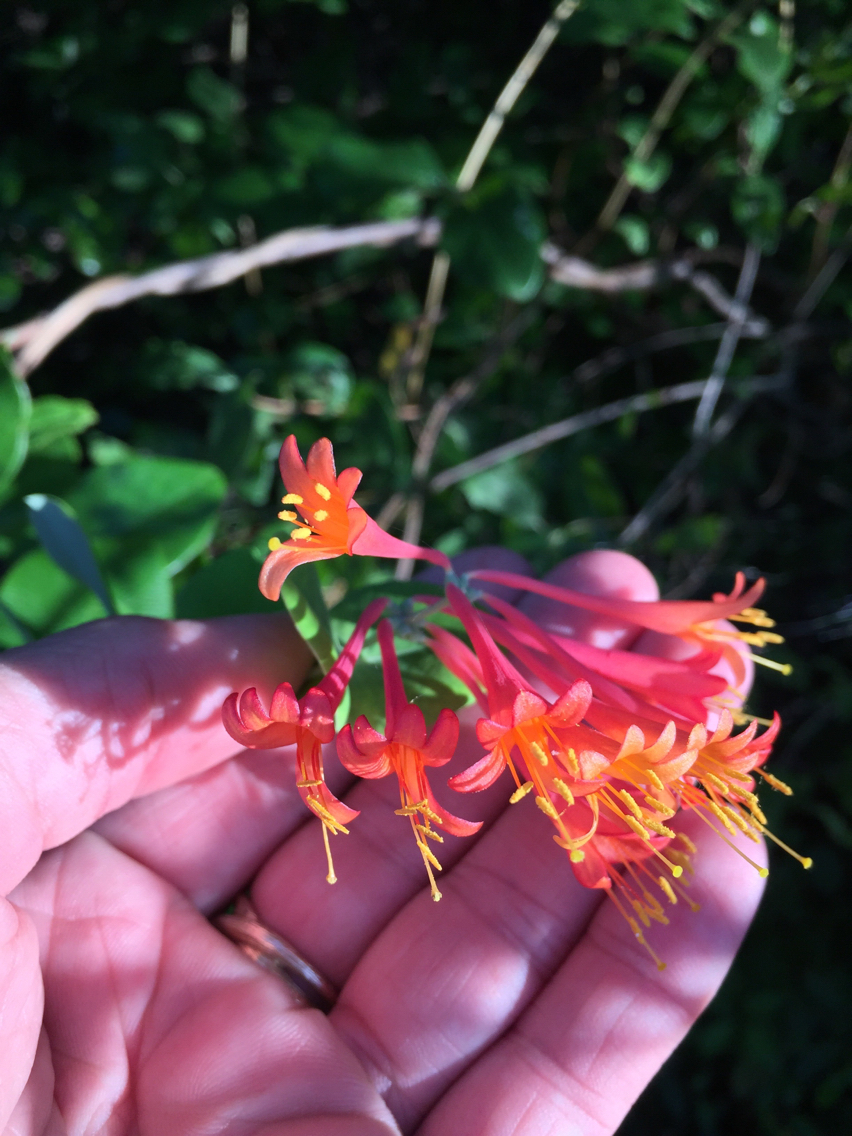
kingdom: Plantae
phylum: Tracheophyta
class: Magnoliopsida
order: Dipsacales
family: Caprifoliaceae
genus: Lonicera
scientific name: Lonicera sempervirens
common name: Coral honeysuckle
